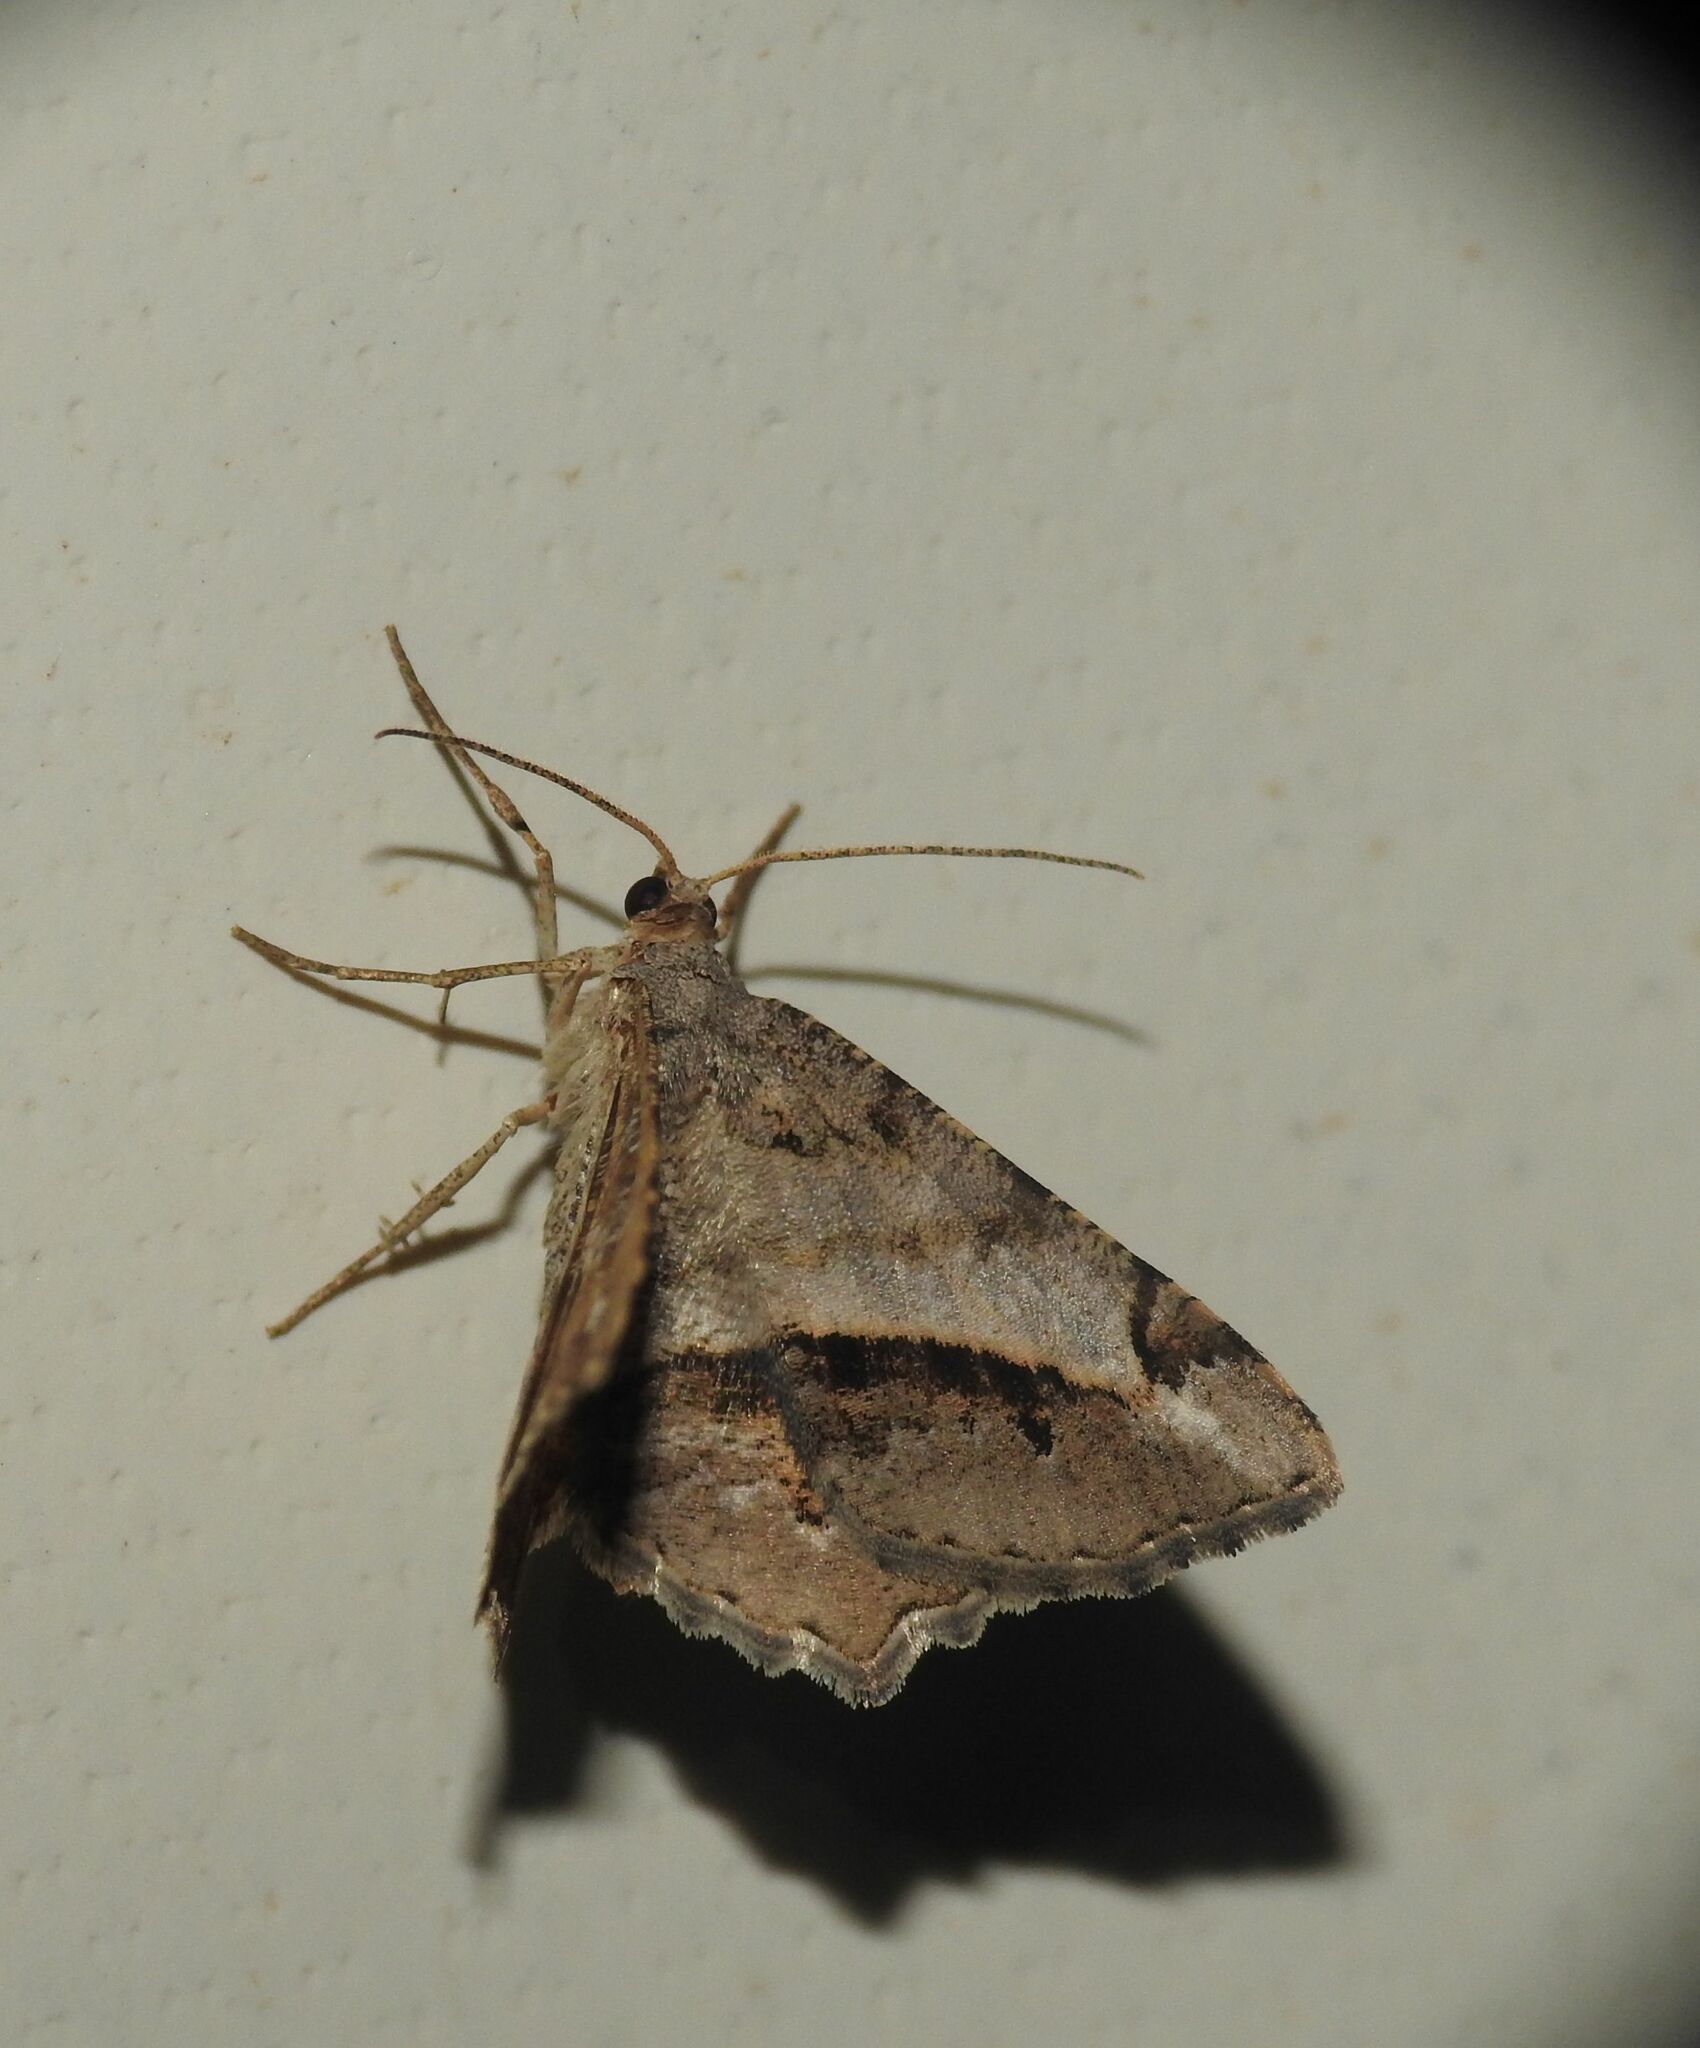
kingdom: Animalia
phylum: Arthropoda
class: Insecta
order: Lepidoptera
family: Geometridae
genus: Chiasmia
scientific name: Chiasmia aestimaria
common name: Tamarisk peacock
